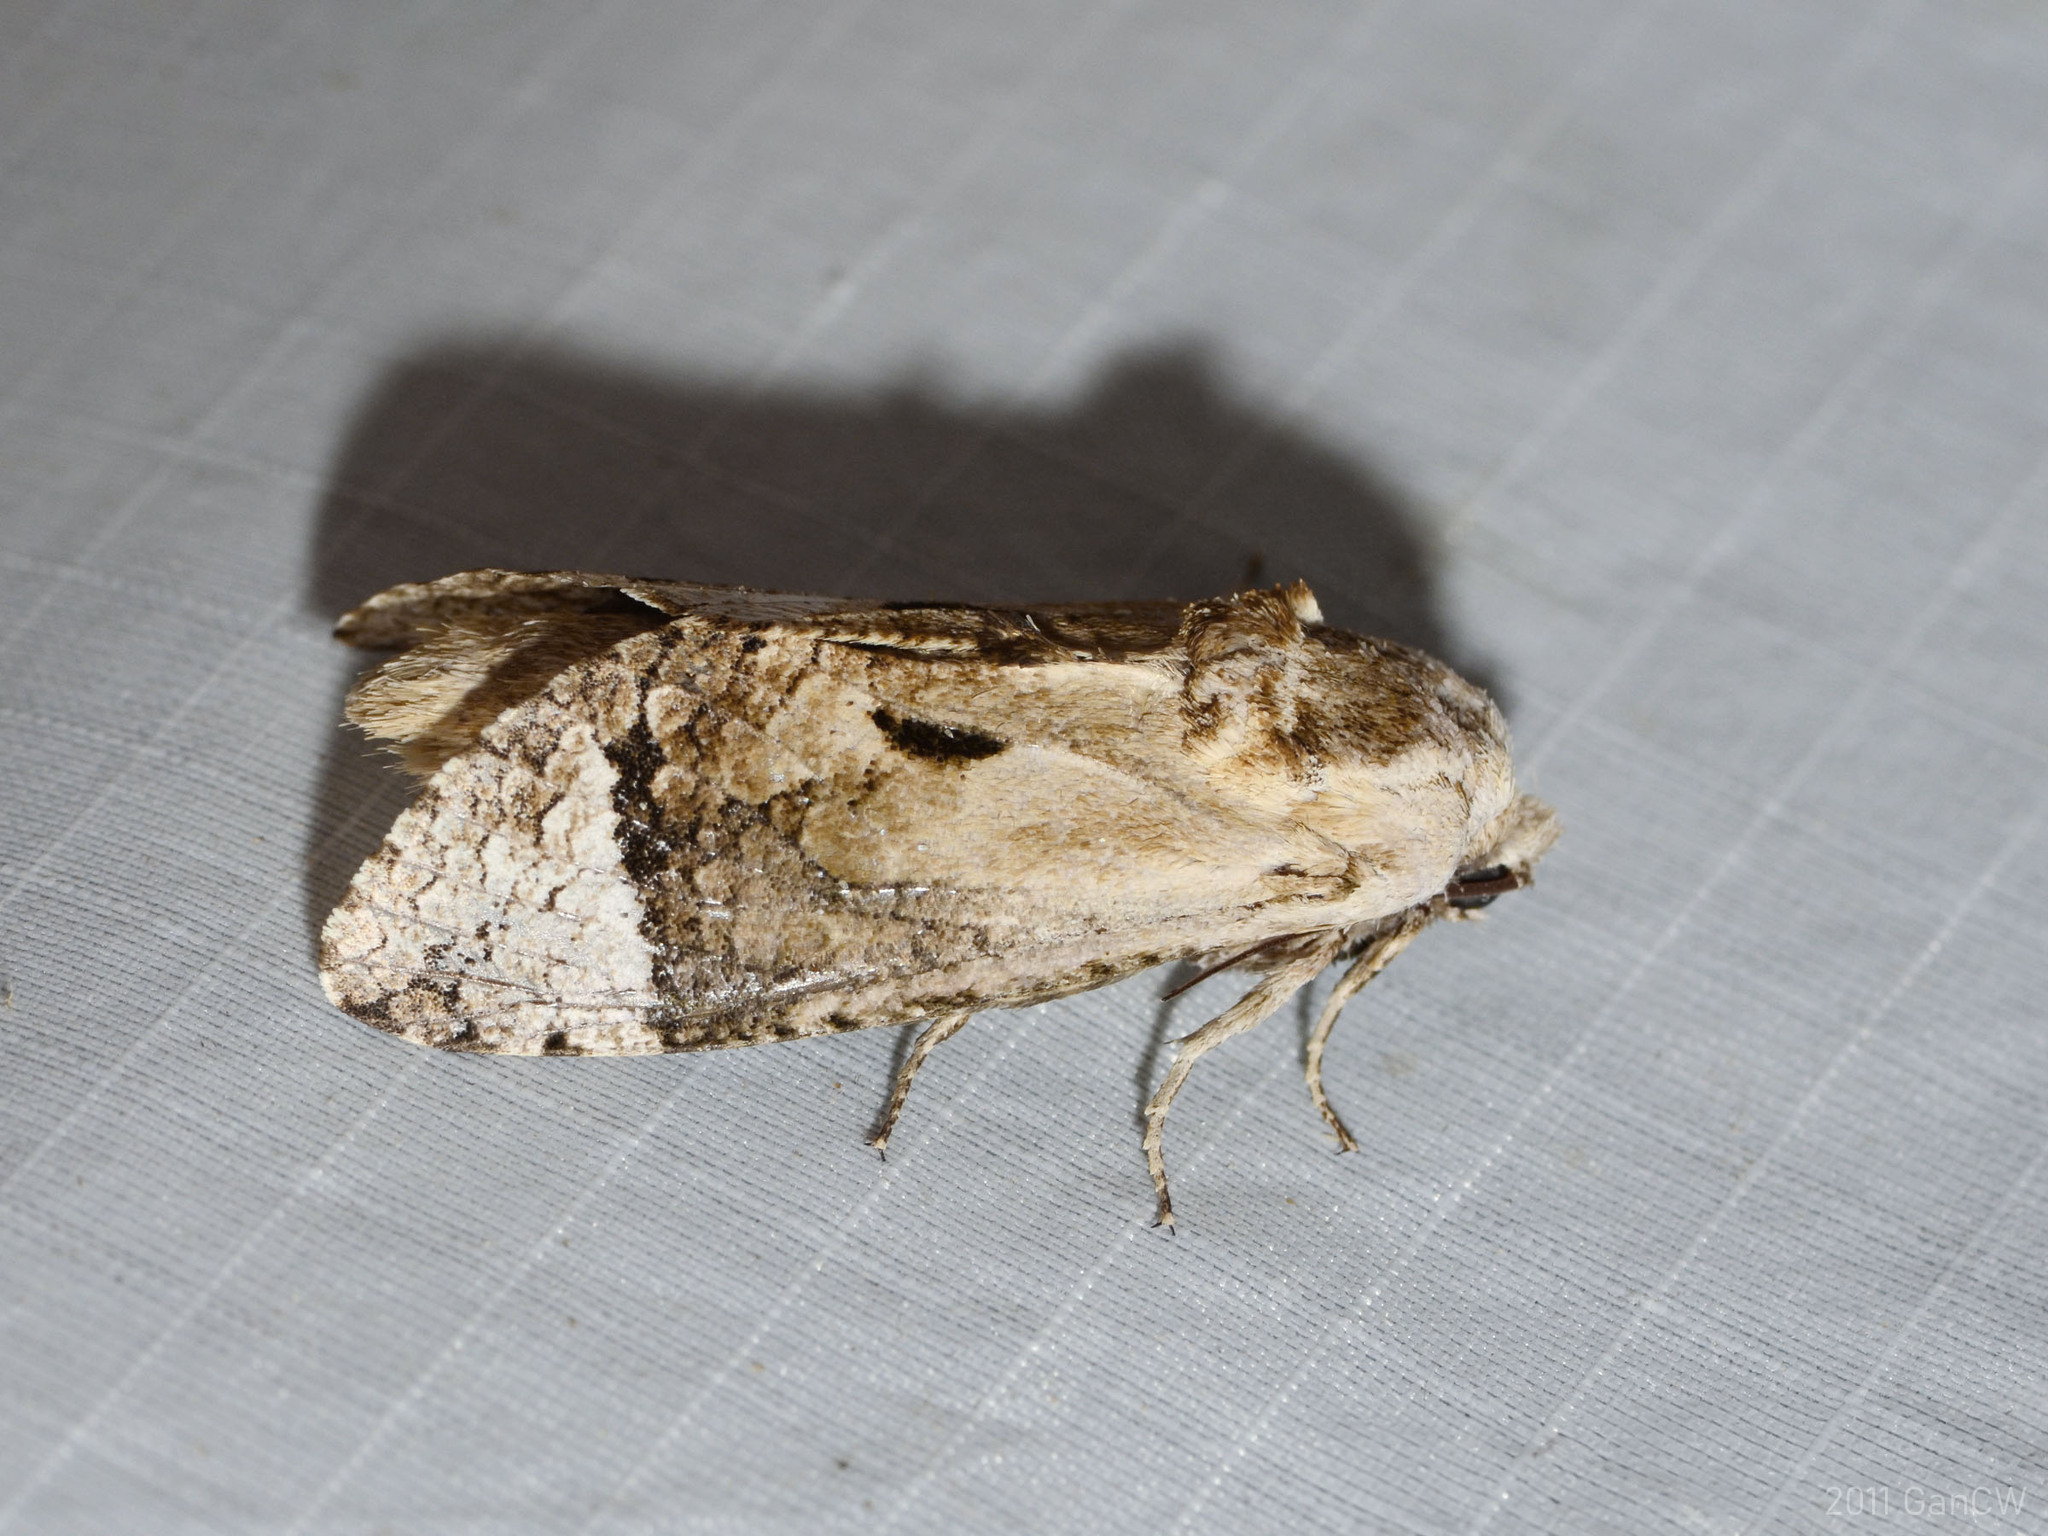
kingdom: Animalia
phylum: Arthropoda
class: Insecta
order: Lepidoptera
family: Cossidae
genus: Groenendaelia
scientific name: Groenendaelia kinabaluensis
